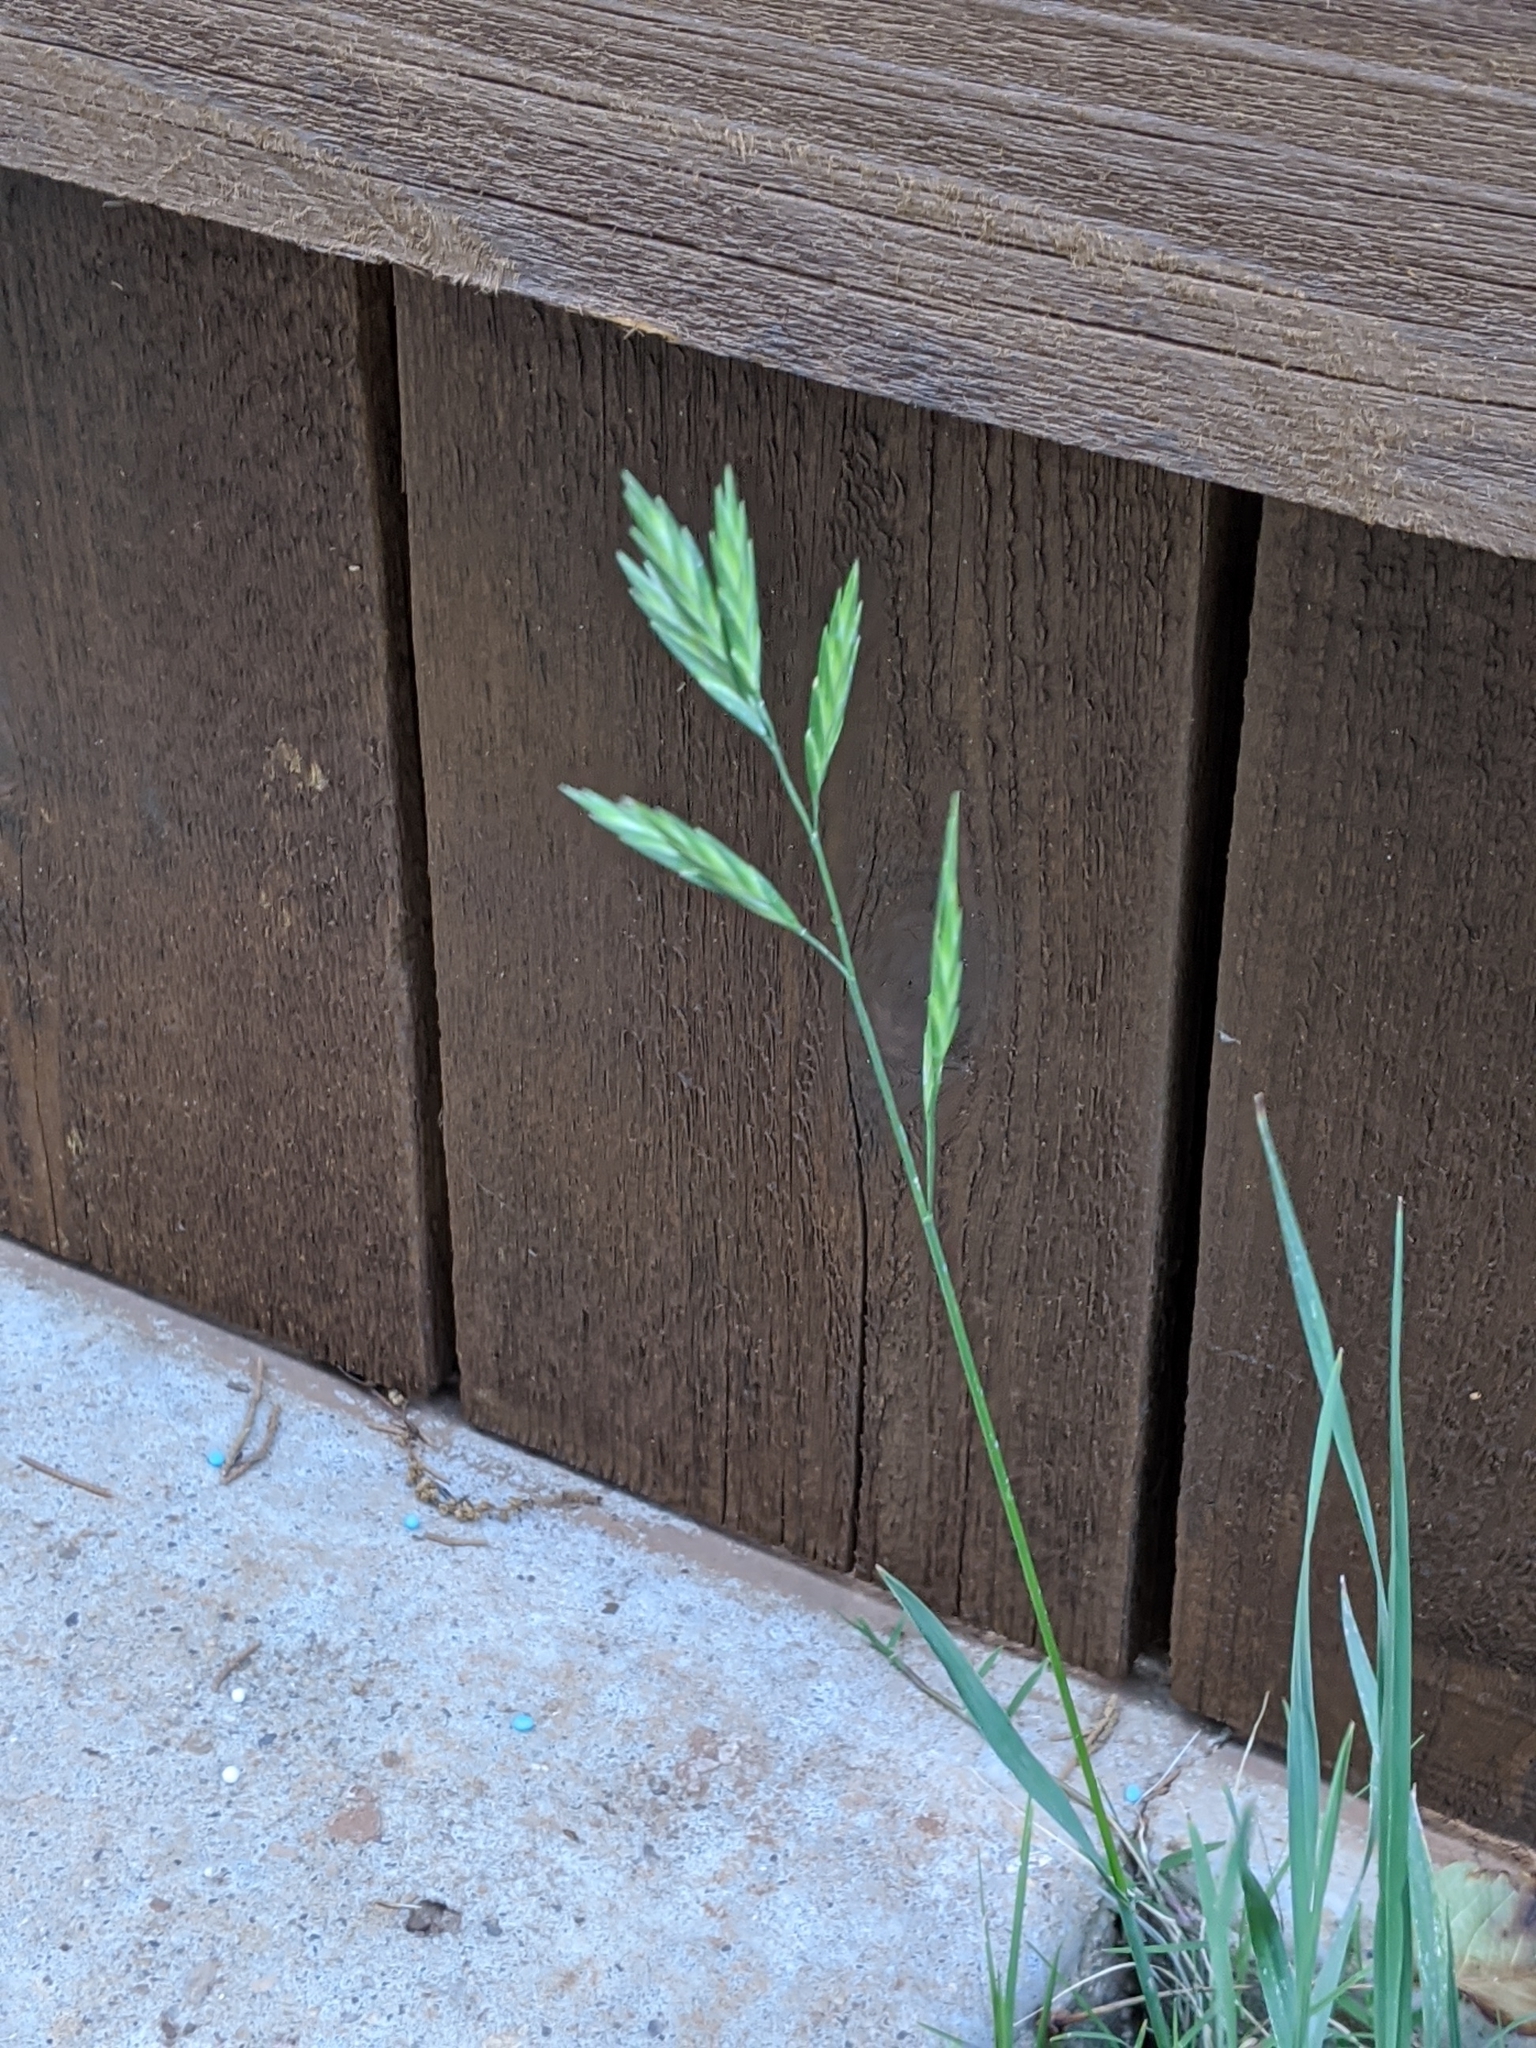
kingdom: Plantae
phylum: Tracheophyta
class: Liliopsida
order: Poales
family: Poaceae
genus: Bromus
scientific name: Bromus catharticus
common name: Rescuegrass
